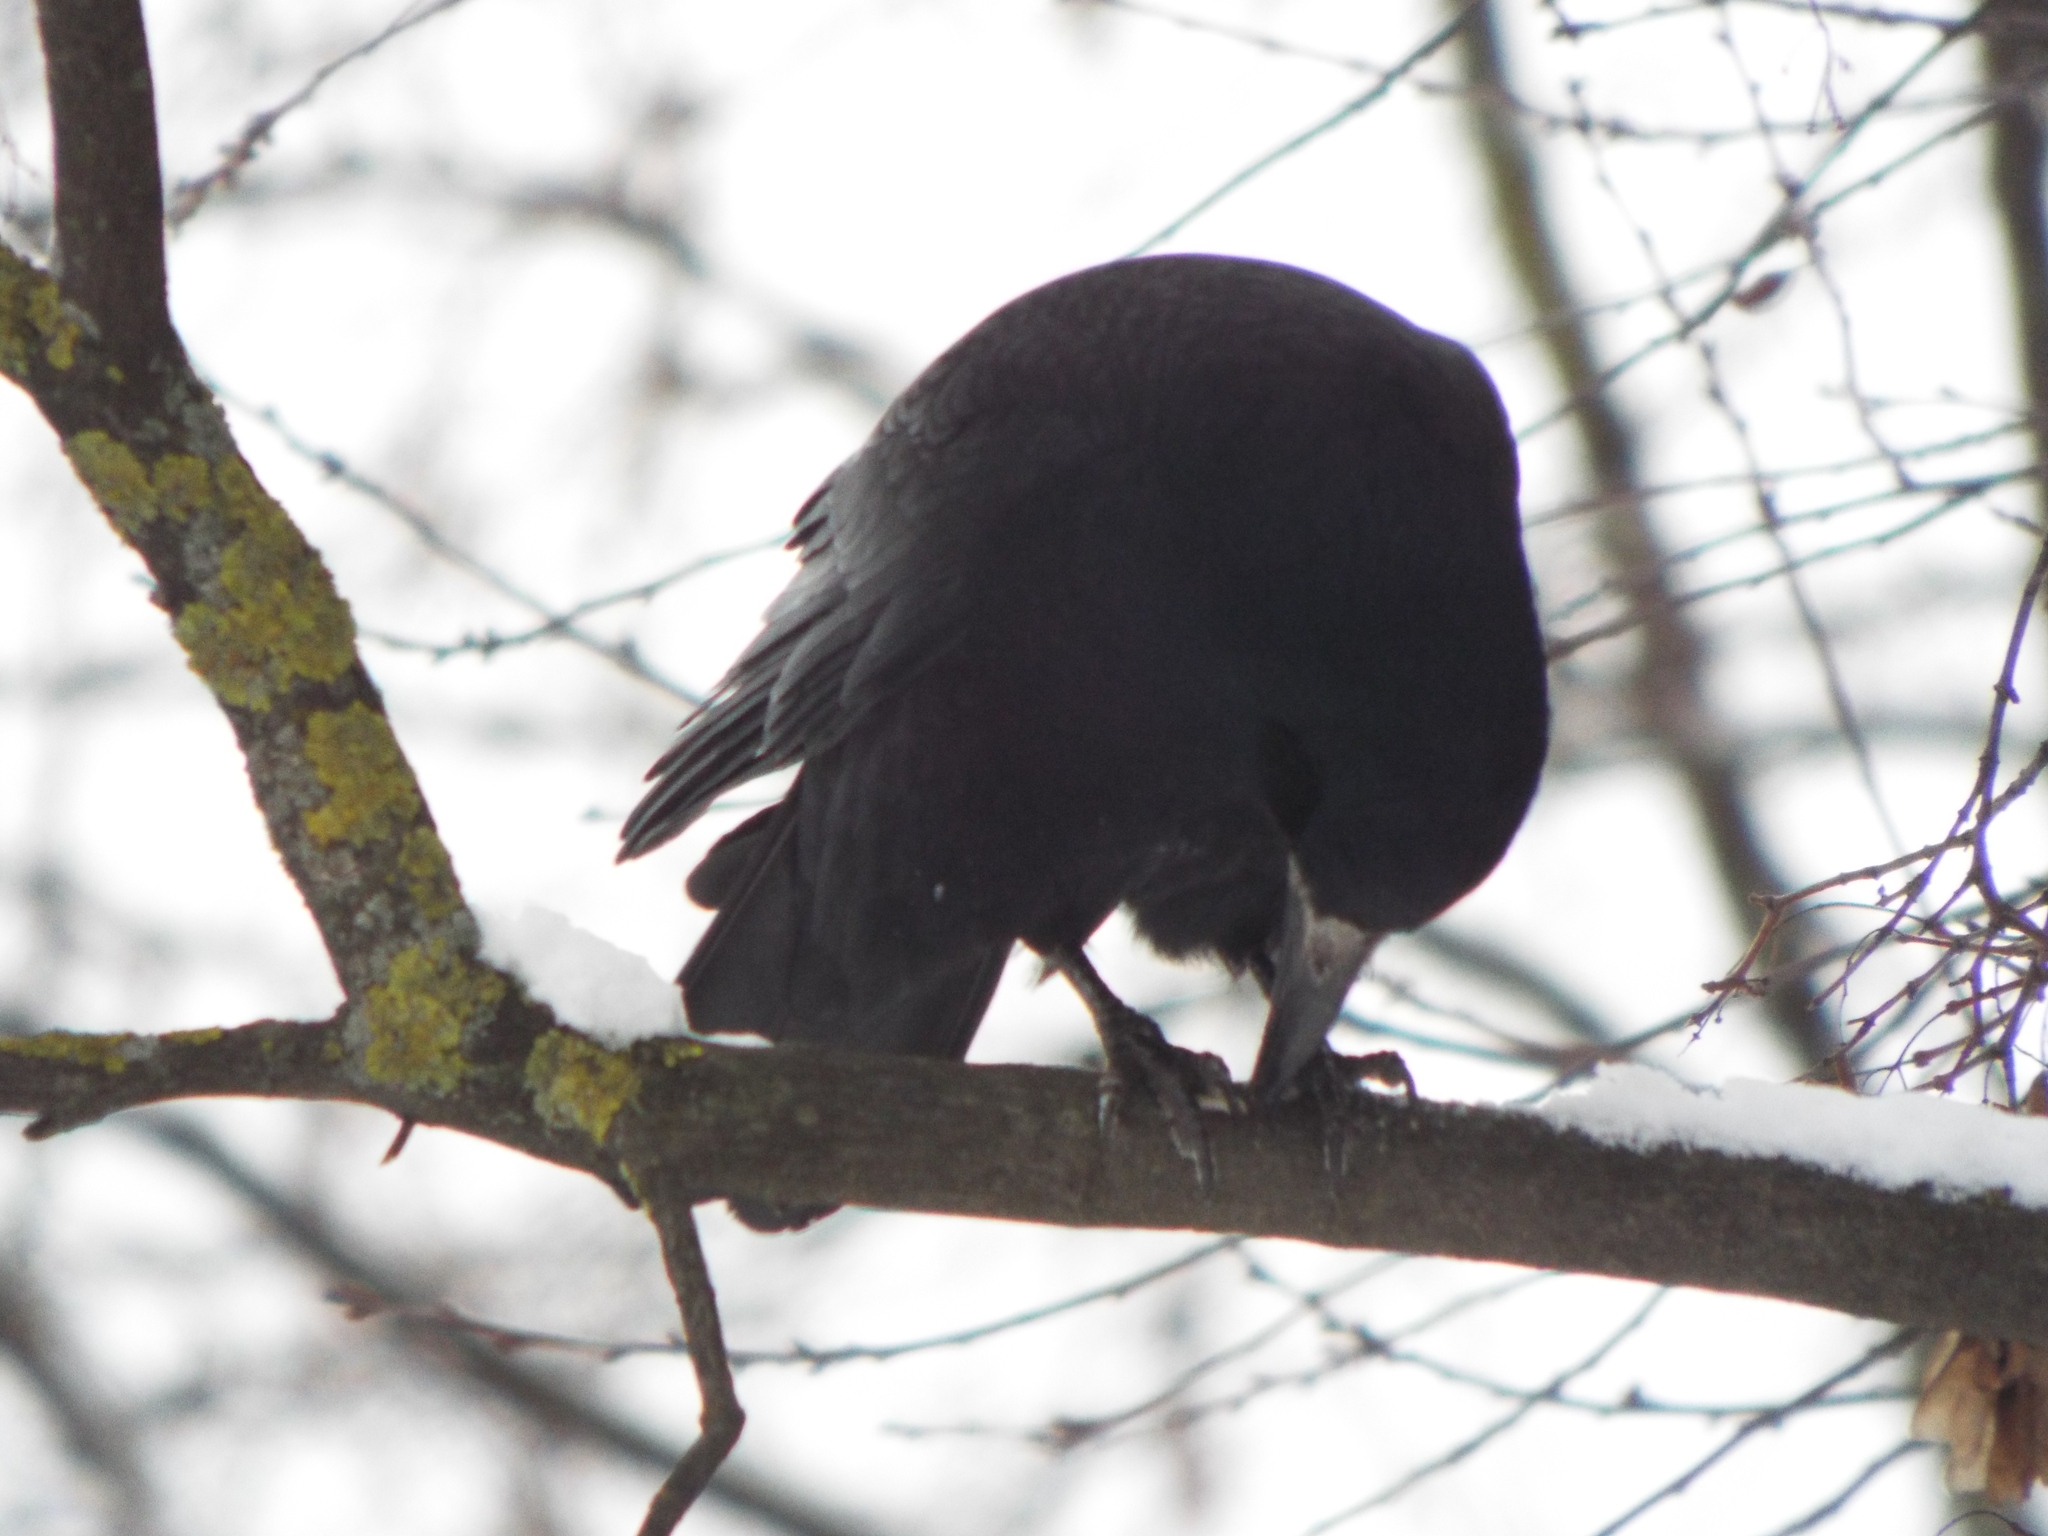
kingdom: Animalia
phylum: Chordata
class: Aves
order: Passeriformes
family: Corvidae
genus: Corvus
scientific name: Corvus frugilegus
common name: Rook
